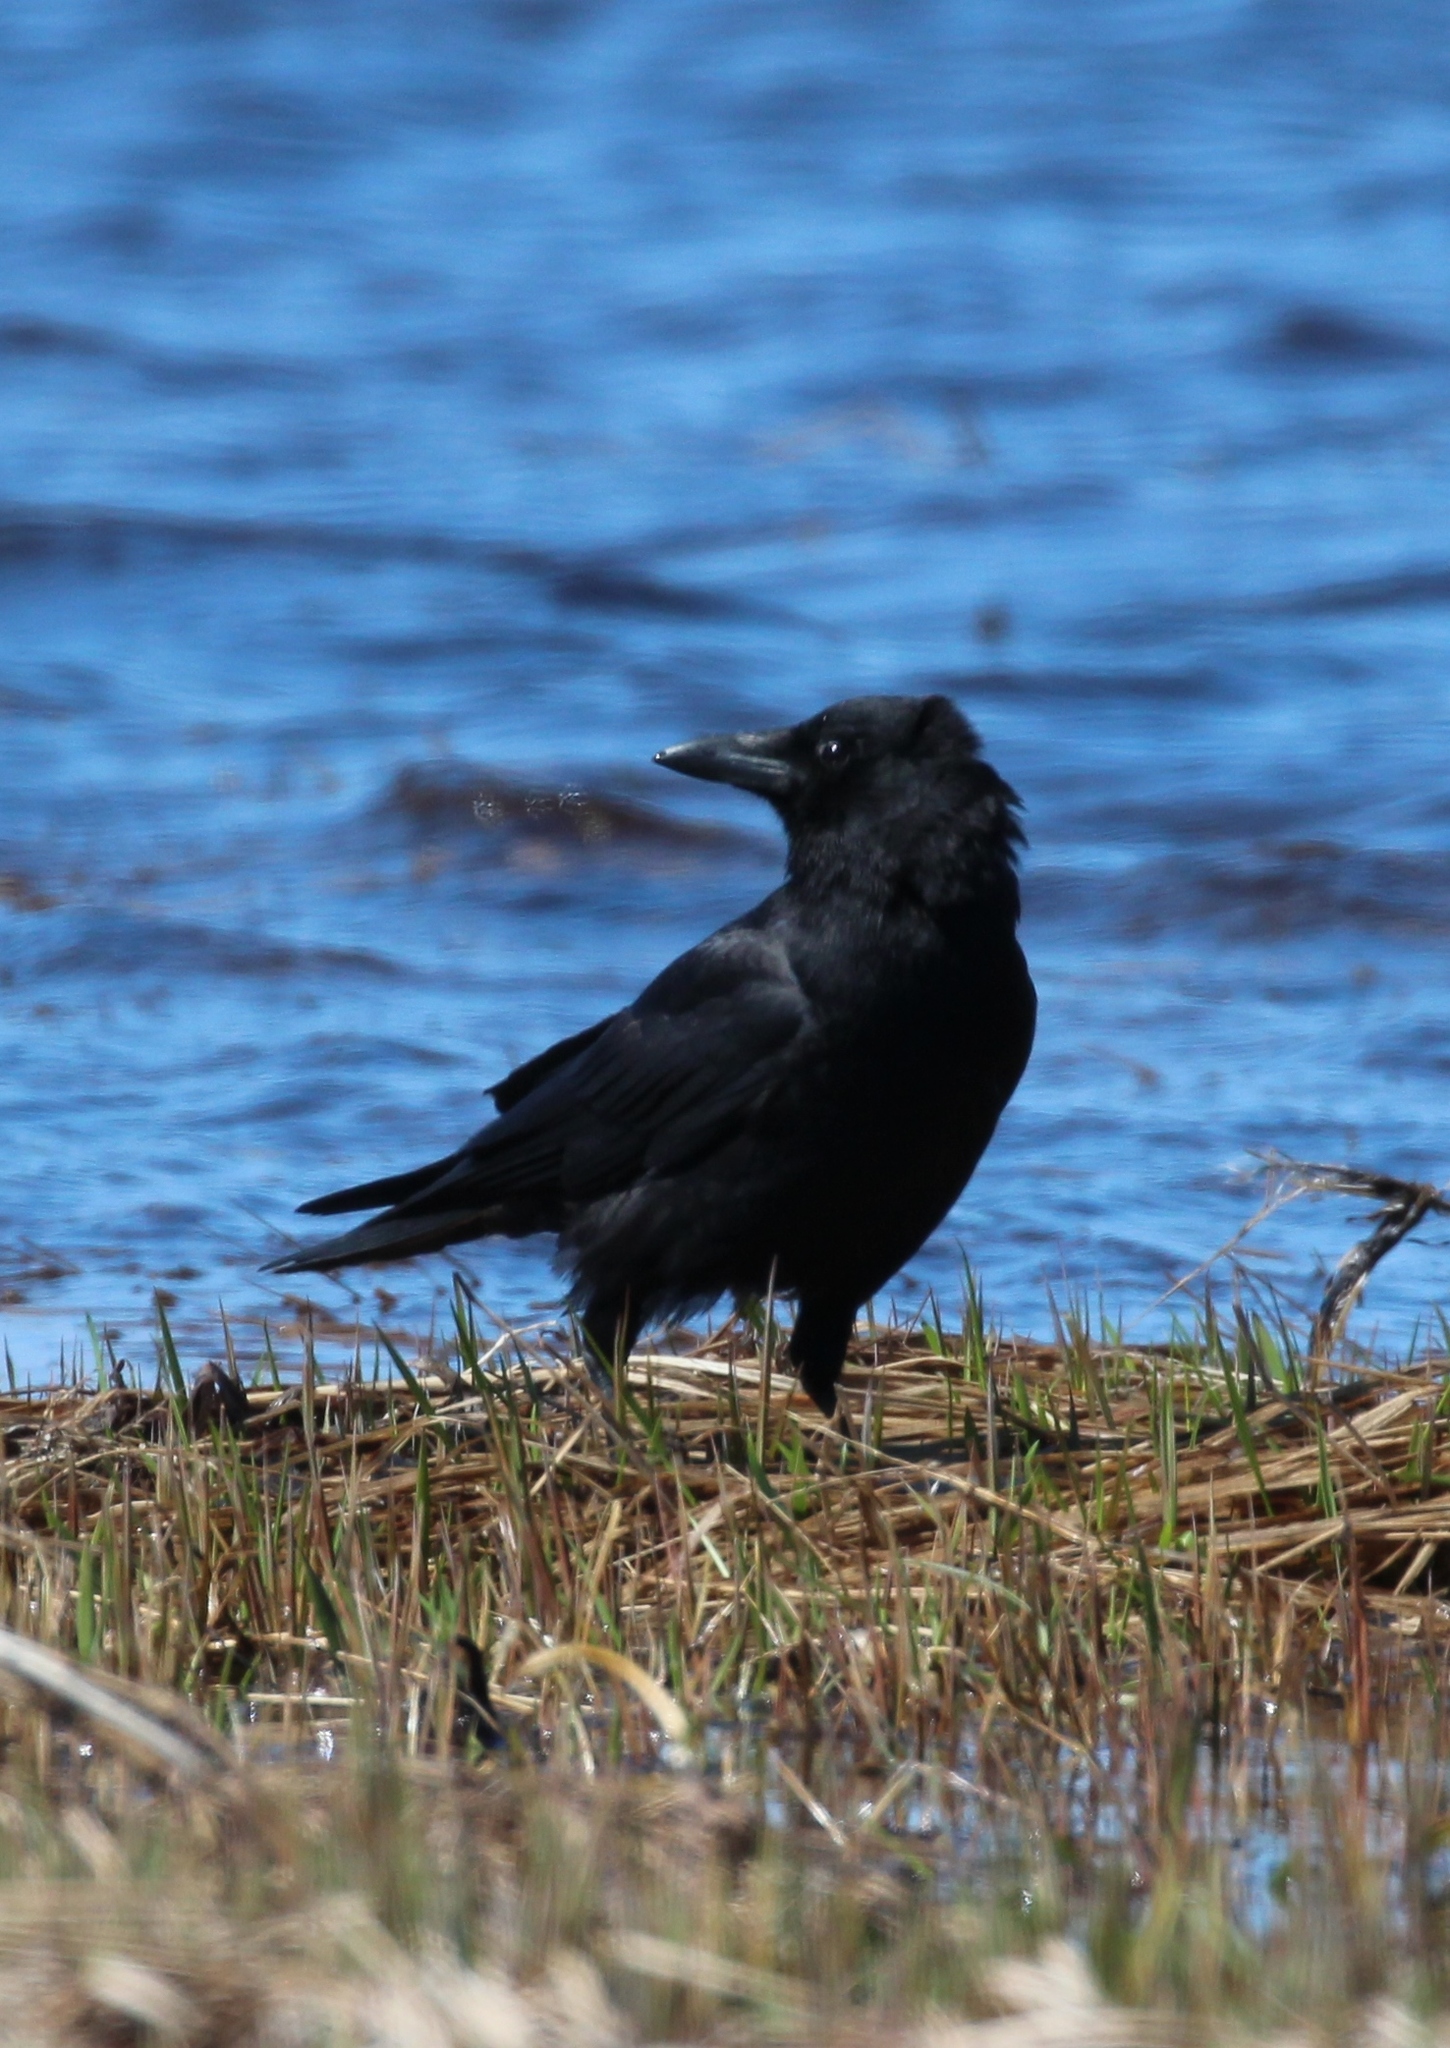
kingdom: Animalia
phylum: Chordata
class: Aves
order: Passeriformes
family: Corvidae
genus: Corvus
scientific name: Corvus brachyrhynchos
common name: American crow
